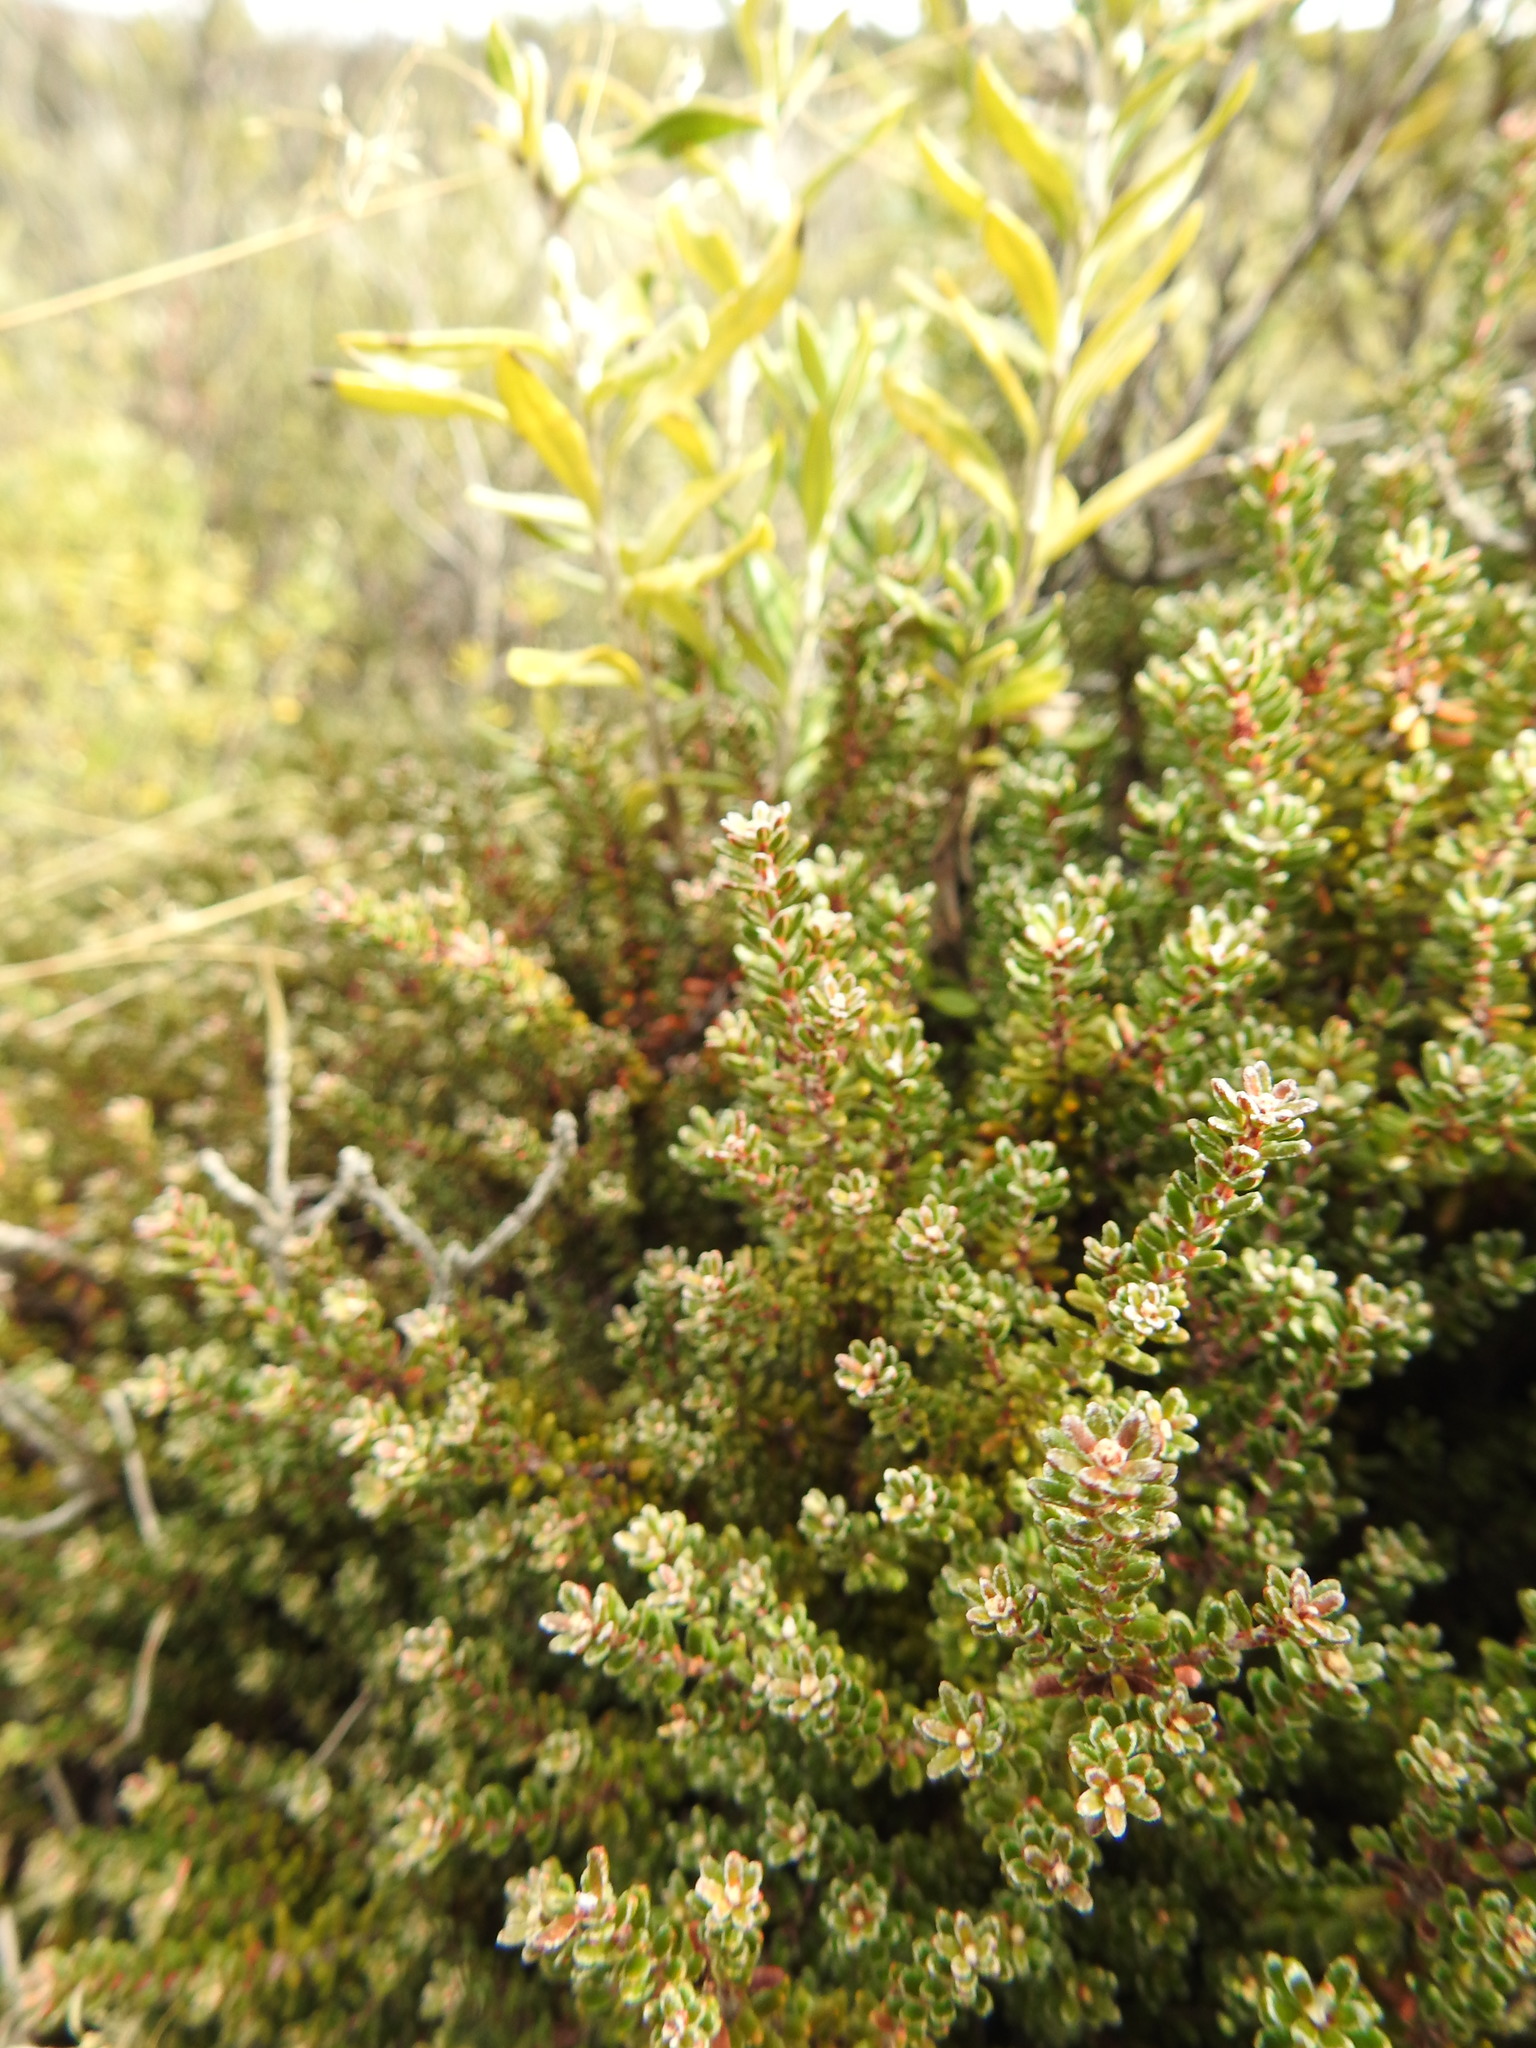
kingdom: Plantae
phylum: Tracheophyta
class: Magnoliopsida
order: Ericales
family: Ericaceae
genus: Empetrum
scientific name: Empetrum rubrum
